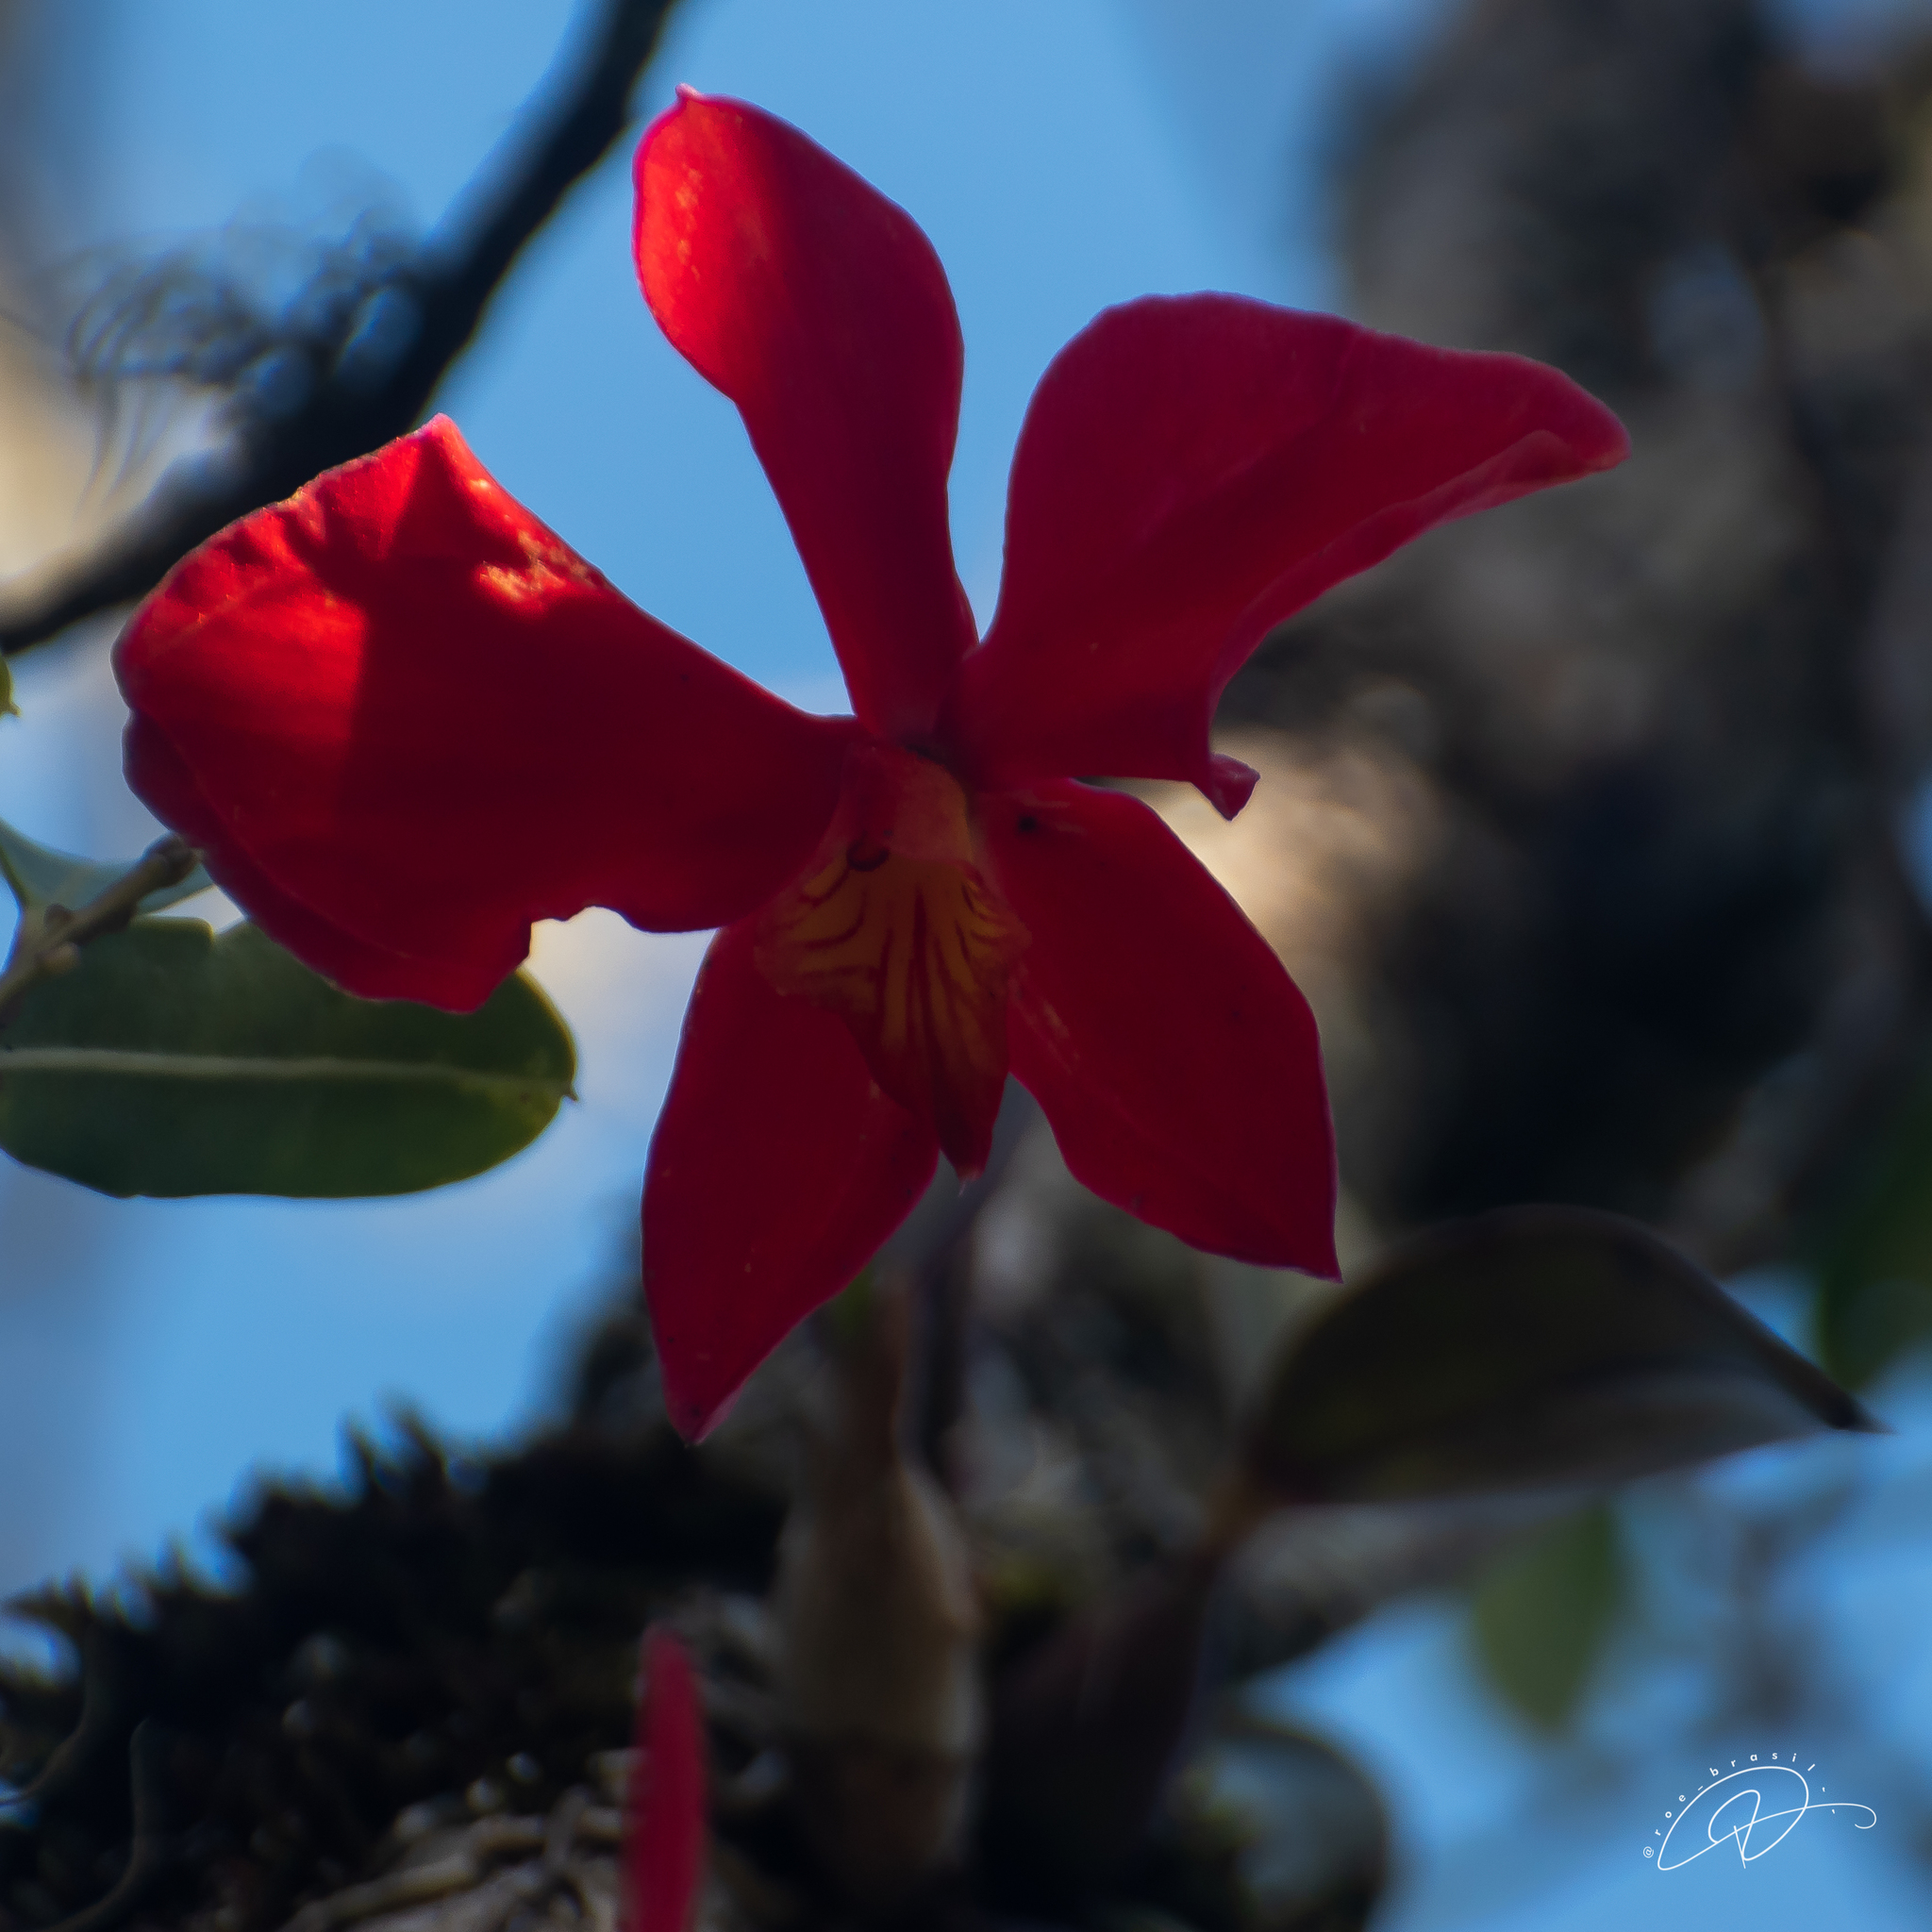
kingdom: Plantae
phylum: Tracheophyta
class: Liliopsida
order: Asparagales
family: Orchidaceae
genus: Cattleya
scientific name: Cattleya coccinea
